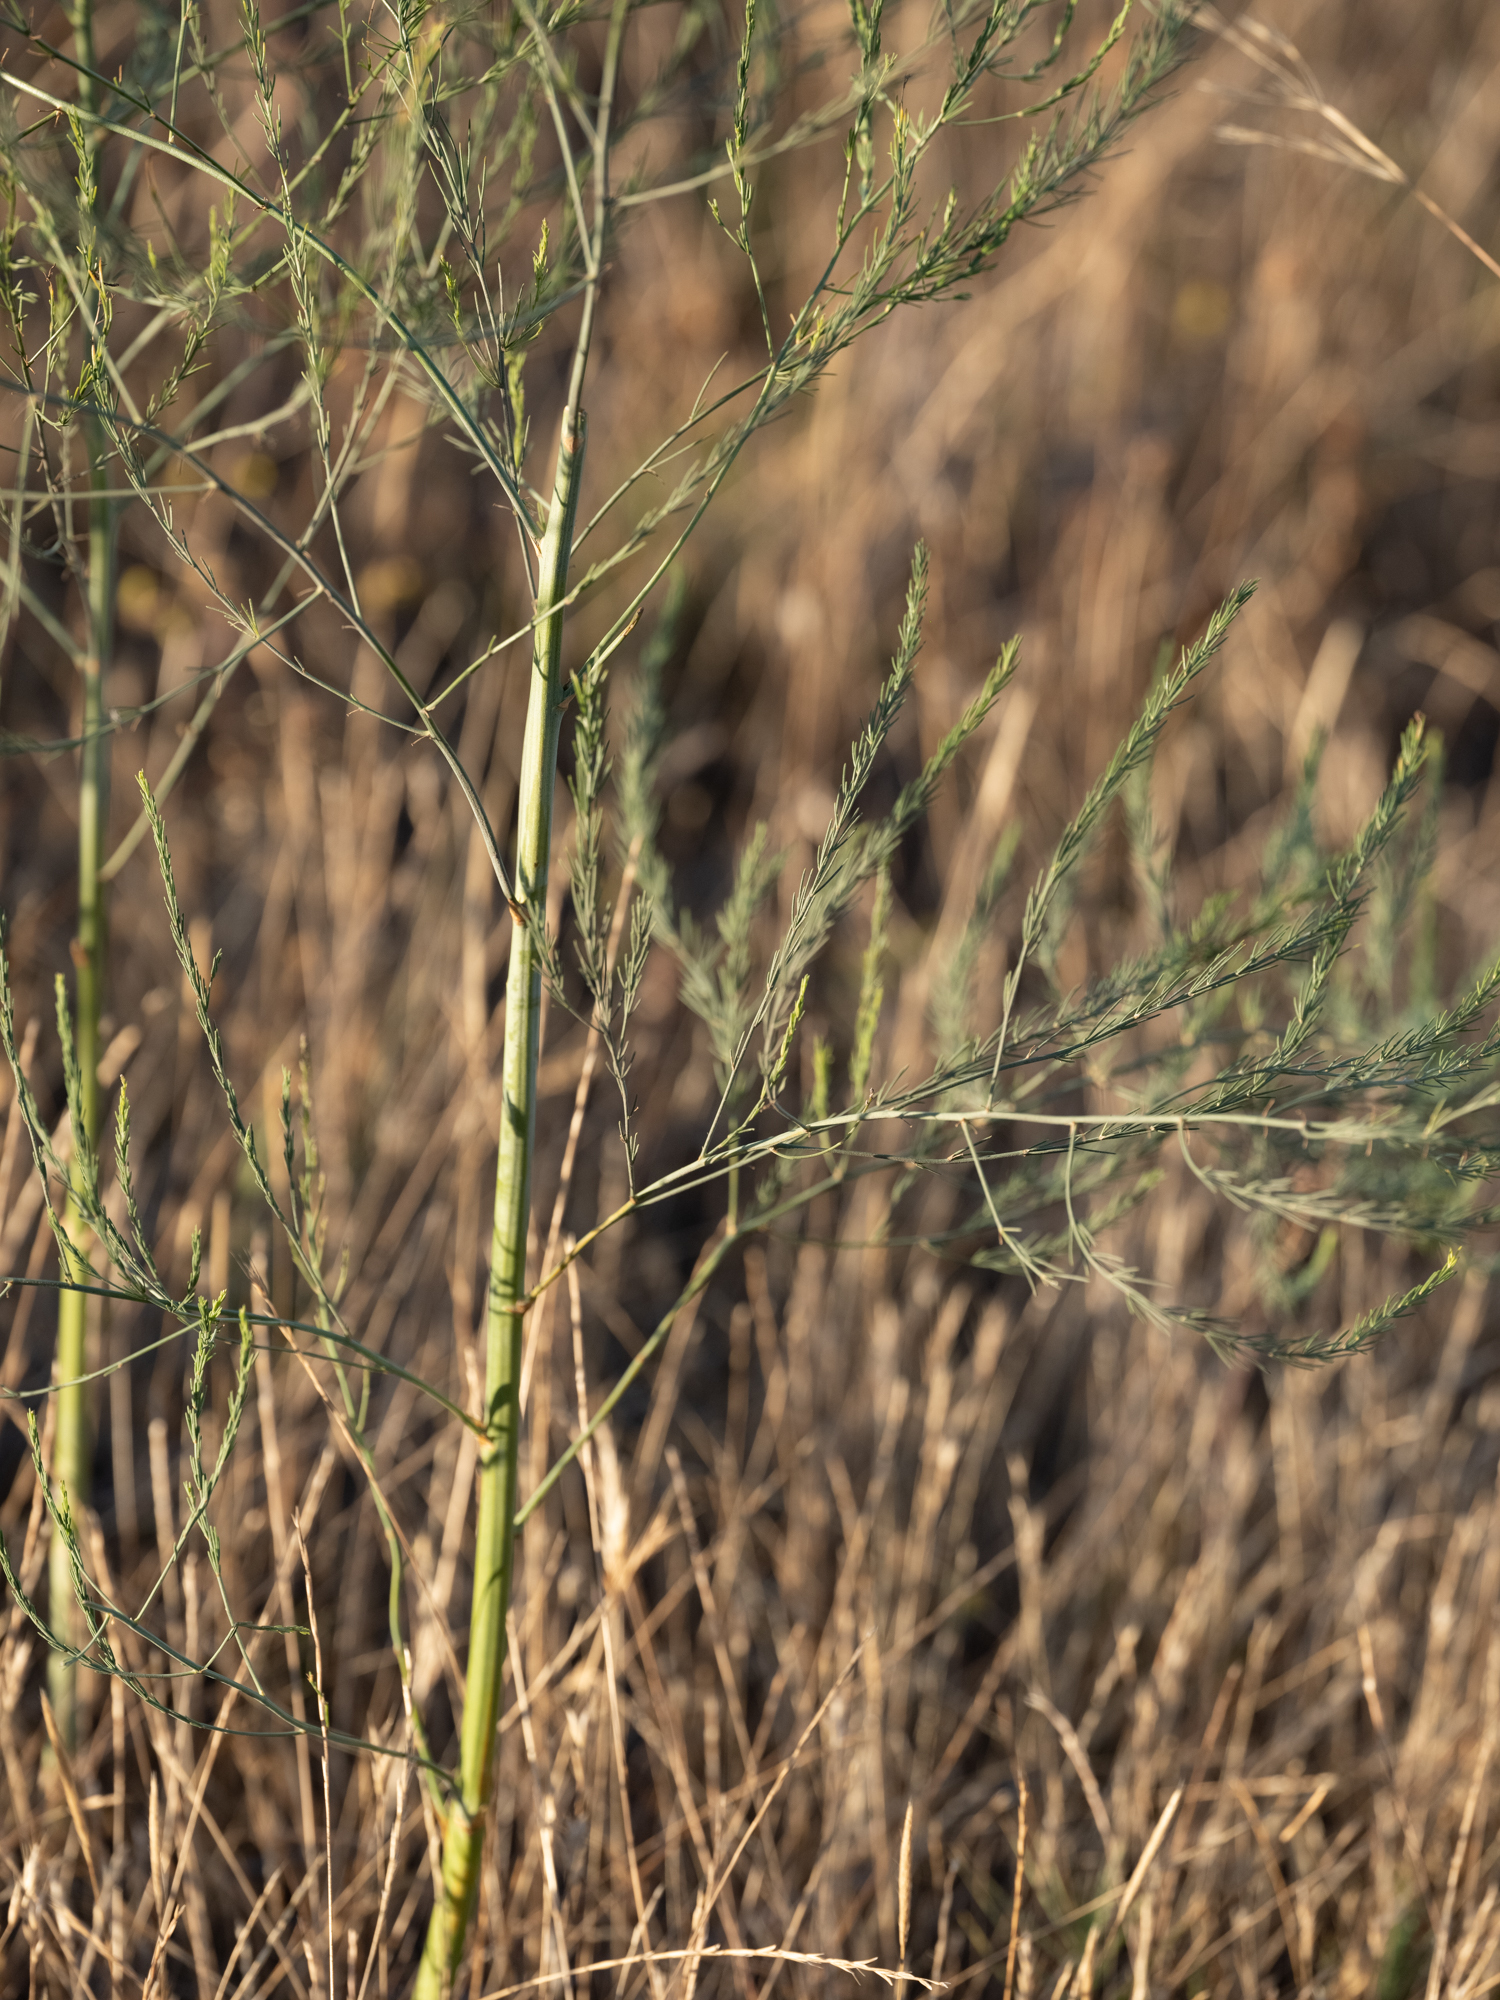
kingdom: Plantae
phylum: Tracheophyta
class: Liliopsida
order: Asparagales
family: Asparagaceae
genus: Asparagus
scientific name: Asparagus officinalis
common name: Garden asparagus
